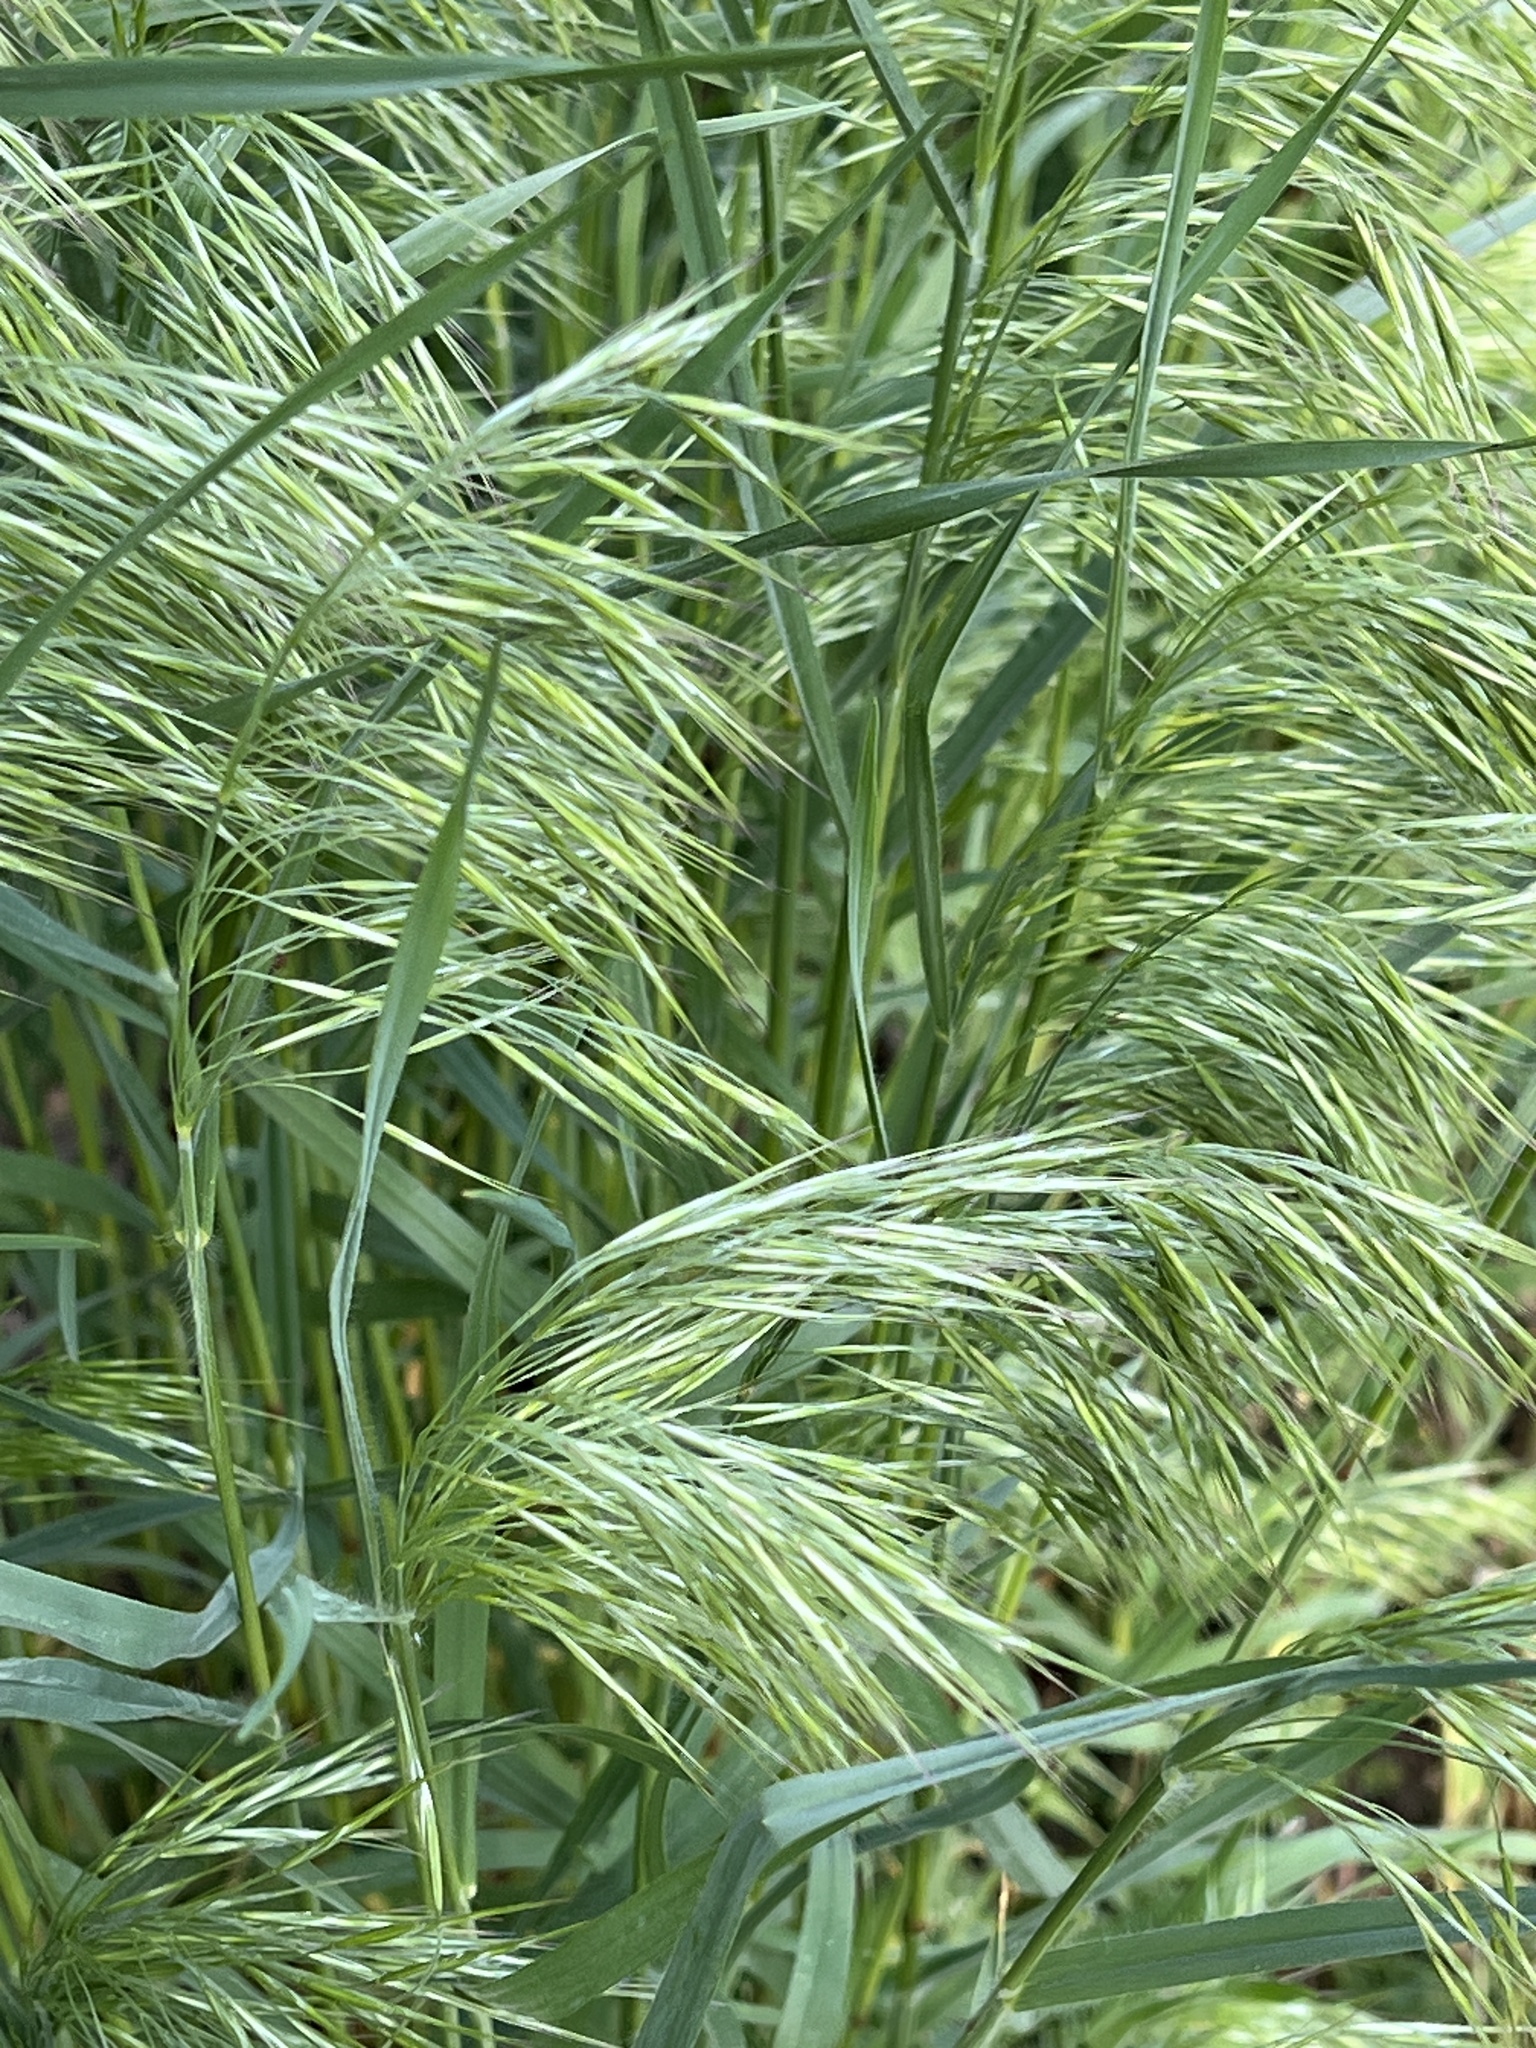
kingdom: Plantae
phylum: Tracheophyta
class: Liliopsida
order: Poales
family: Poaceae
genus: Bromus
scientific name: Bromus tectorum
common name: Cheatgrass
